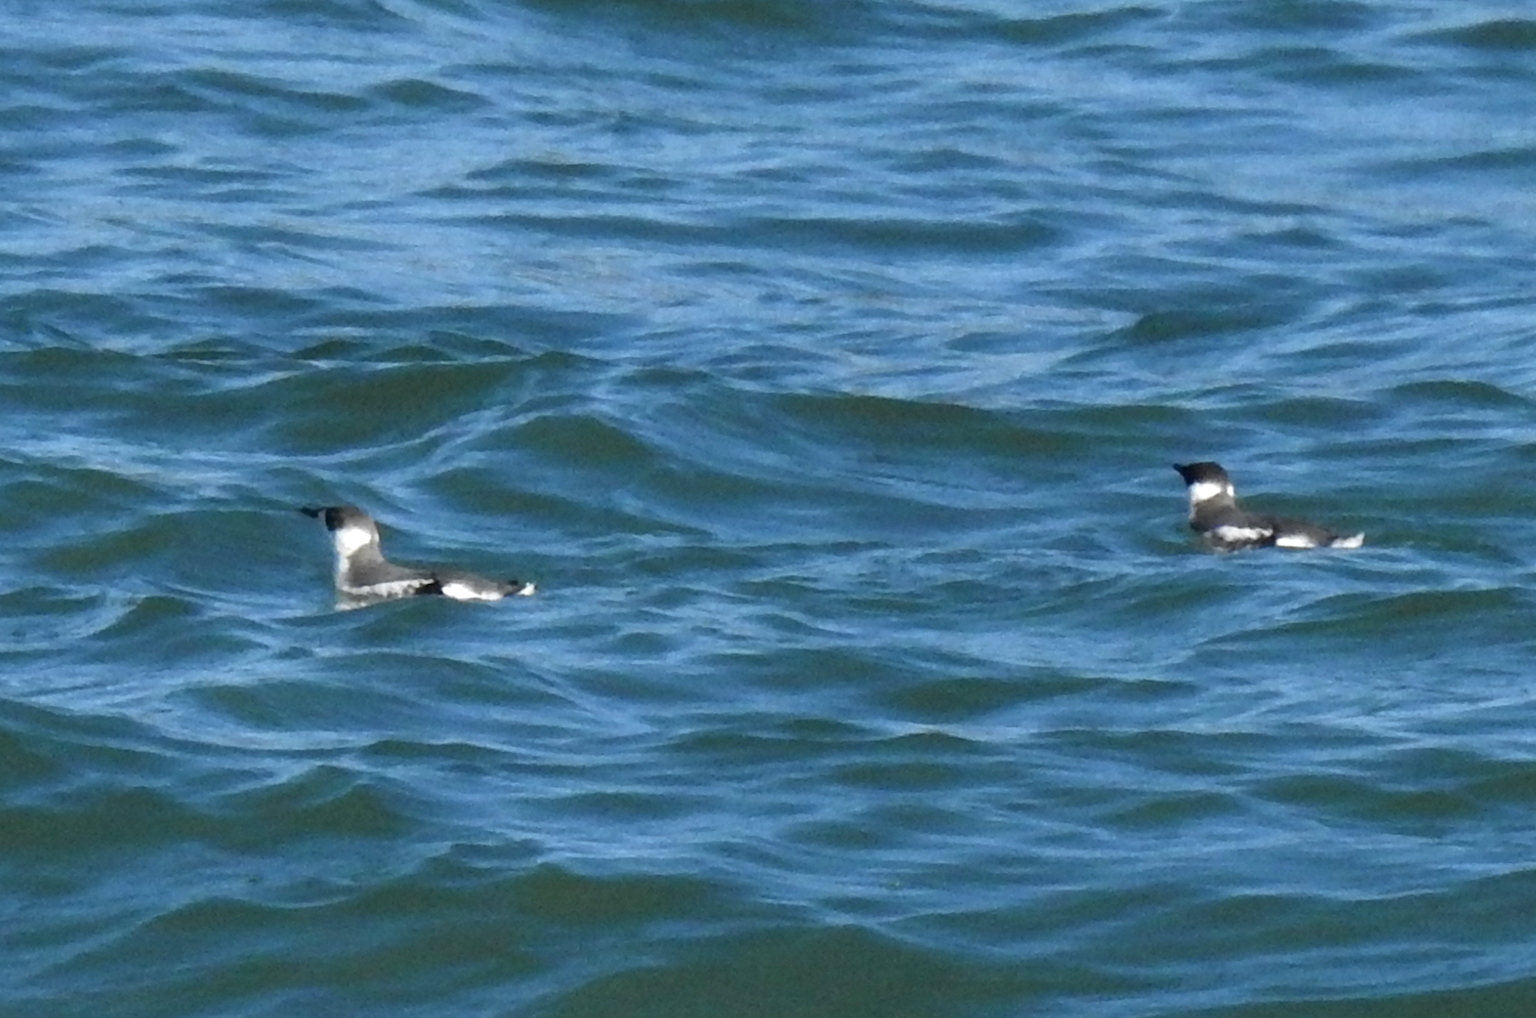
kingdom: Animalia
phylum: Chordata
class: Aves
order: Charadriiformes
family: Alcidae
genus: Brachyramphus
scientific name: Brachyramphus marmoratus
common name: Marbled murrelet
